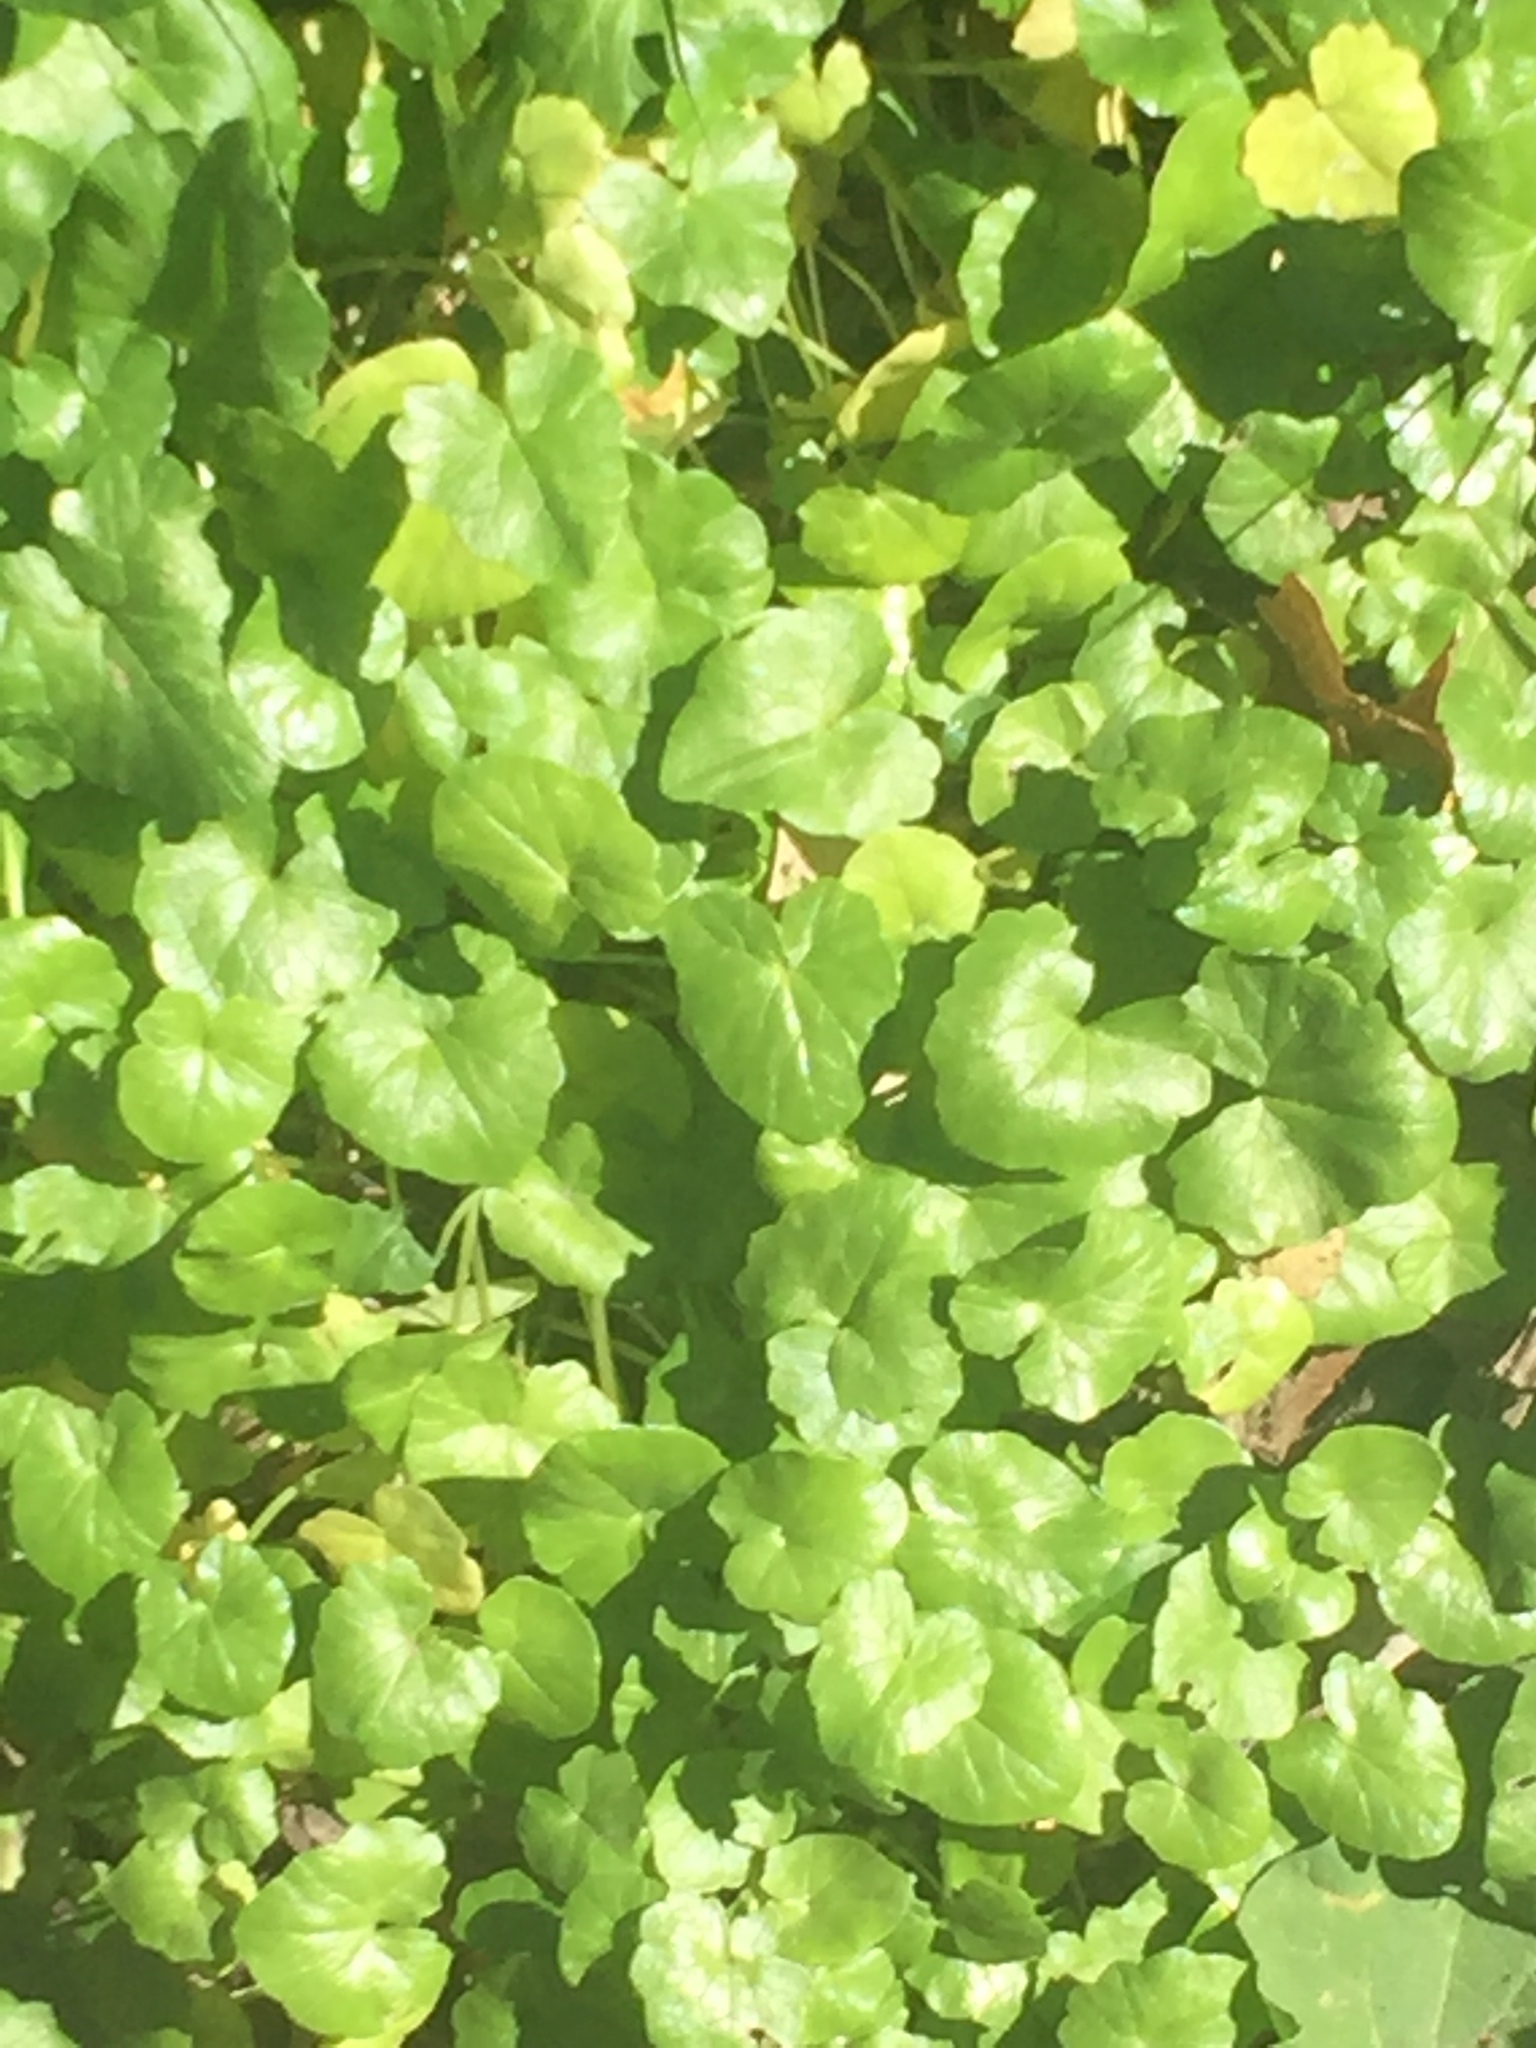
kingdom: Plantae
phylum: Tracheophyta
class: Magnoliopsida
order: Ranunculales
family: Ranunculaceae
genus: Ficaria
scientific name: Ficaria verna
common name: Lesser celandine
